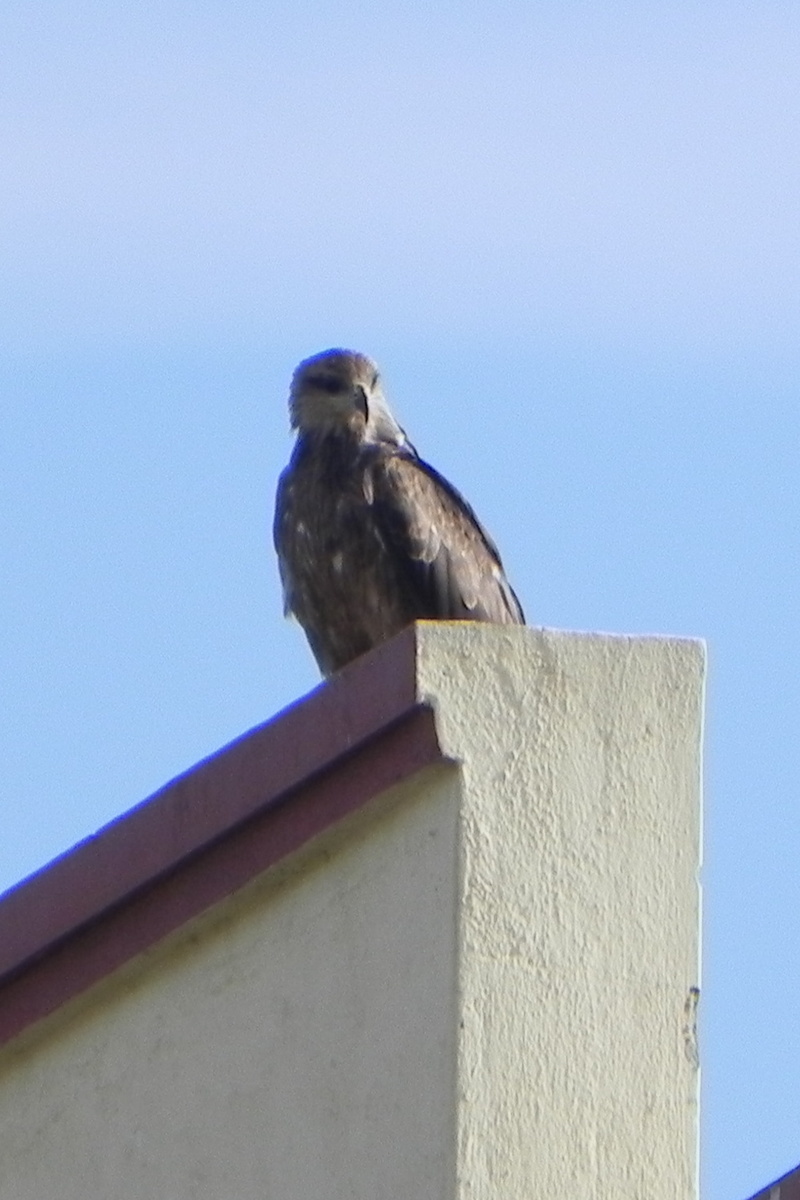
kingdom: Animalia
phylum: Chordata
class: Aves
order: Accipitriformes
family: Accipitridae
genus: Milvus
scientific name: Milvus migrans
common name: Black kite
